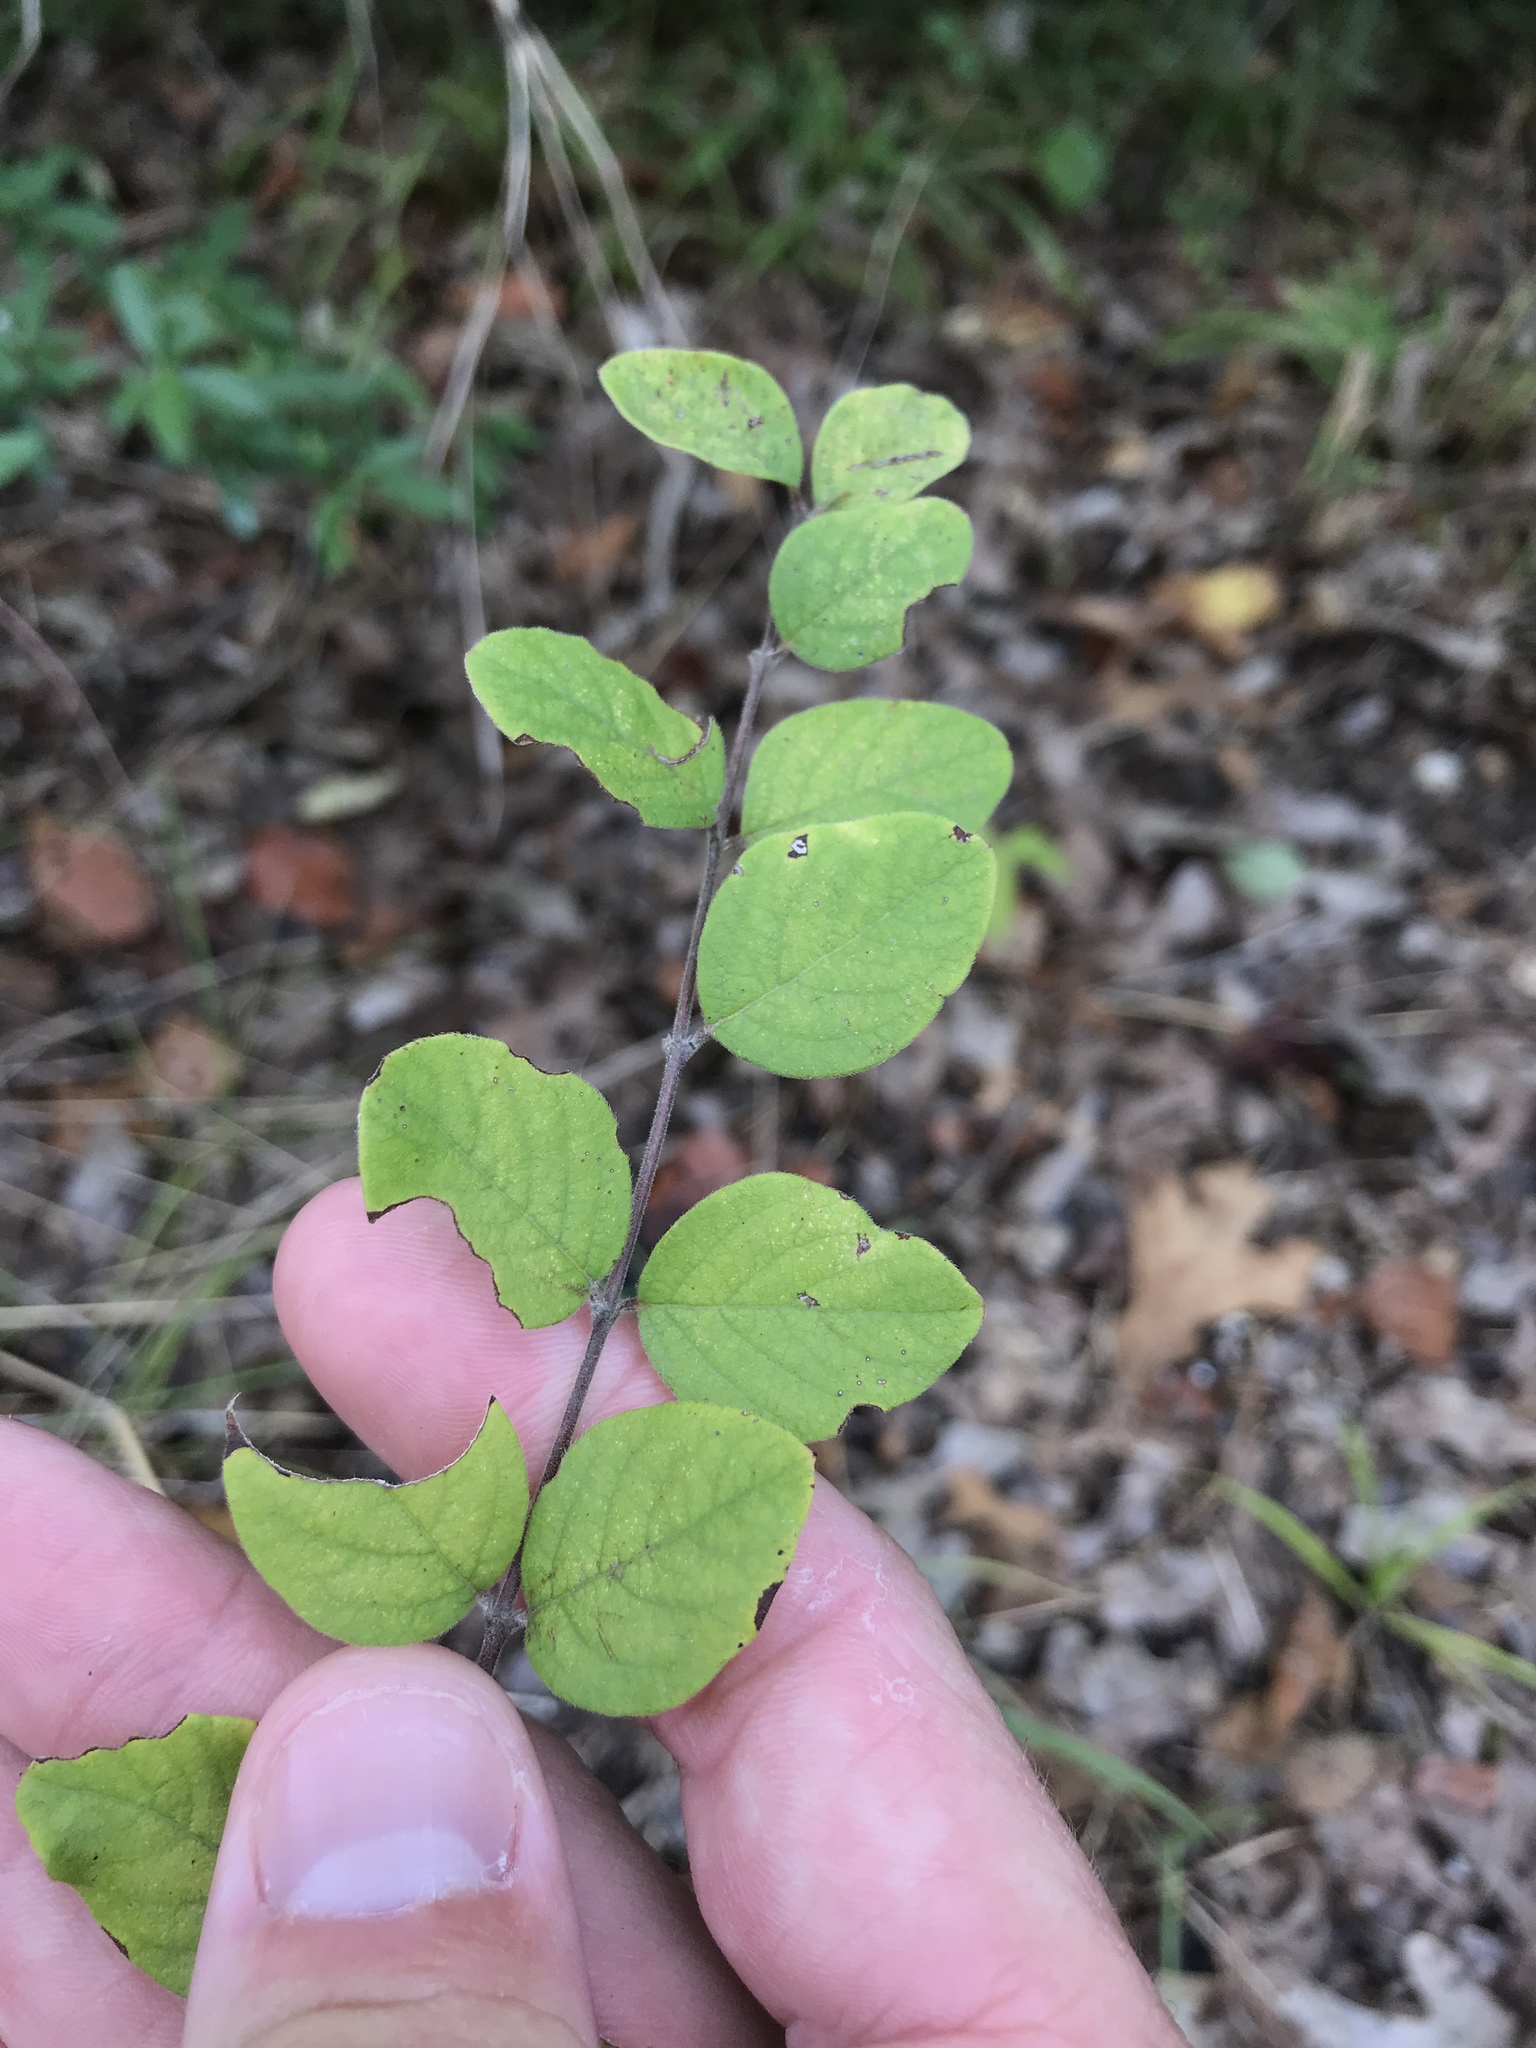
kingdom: Plantae
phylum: Tracheophyta
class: Magnoliopsida
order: Dipsacales
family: Caprifoliaceae
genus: Symphoricarpos
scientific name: Symphoricarpos orbiculatus
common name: Coralberry
